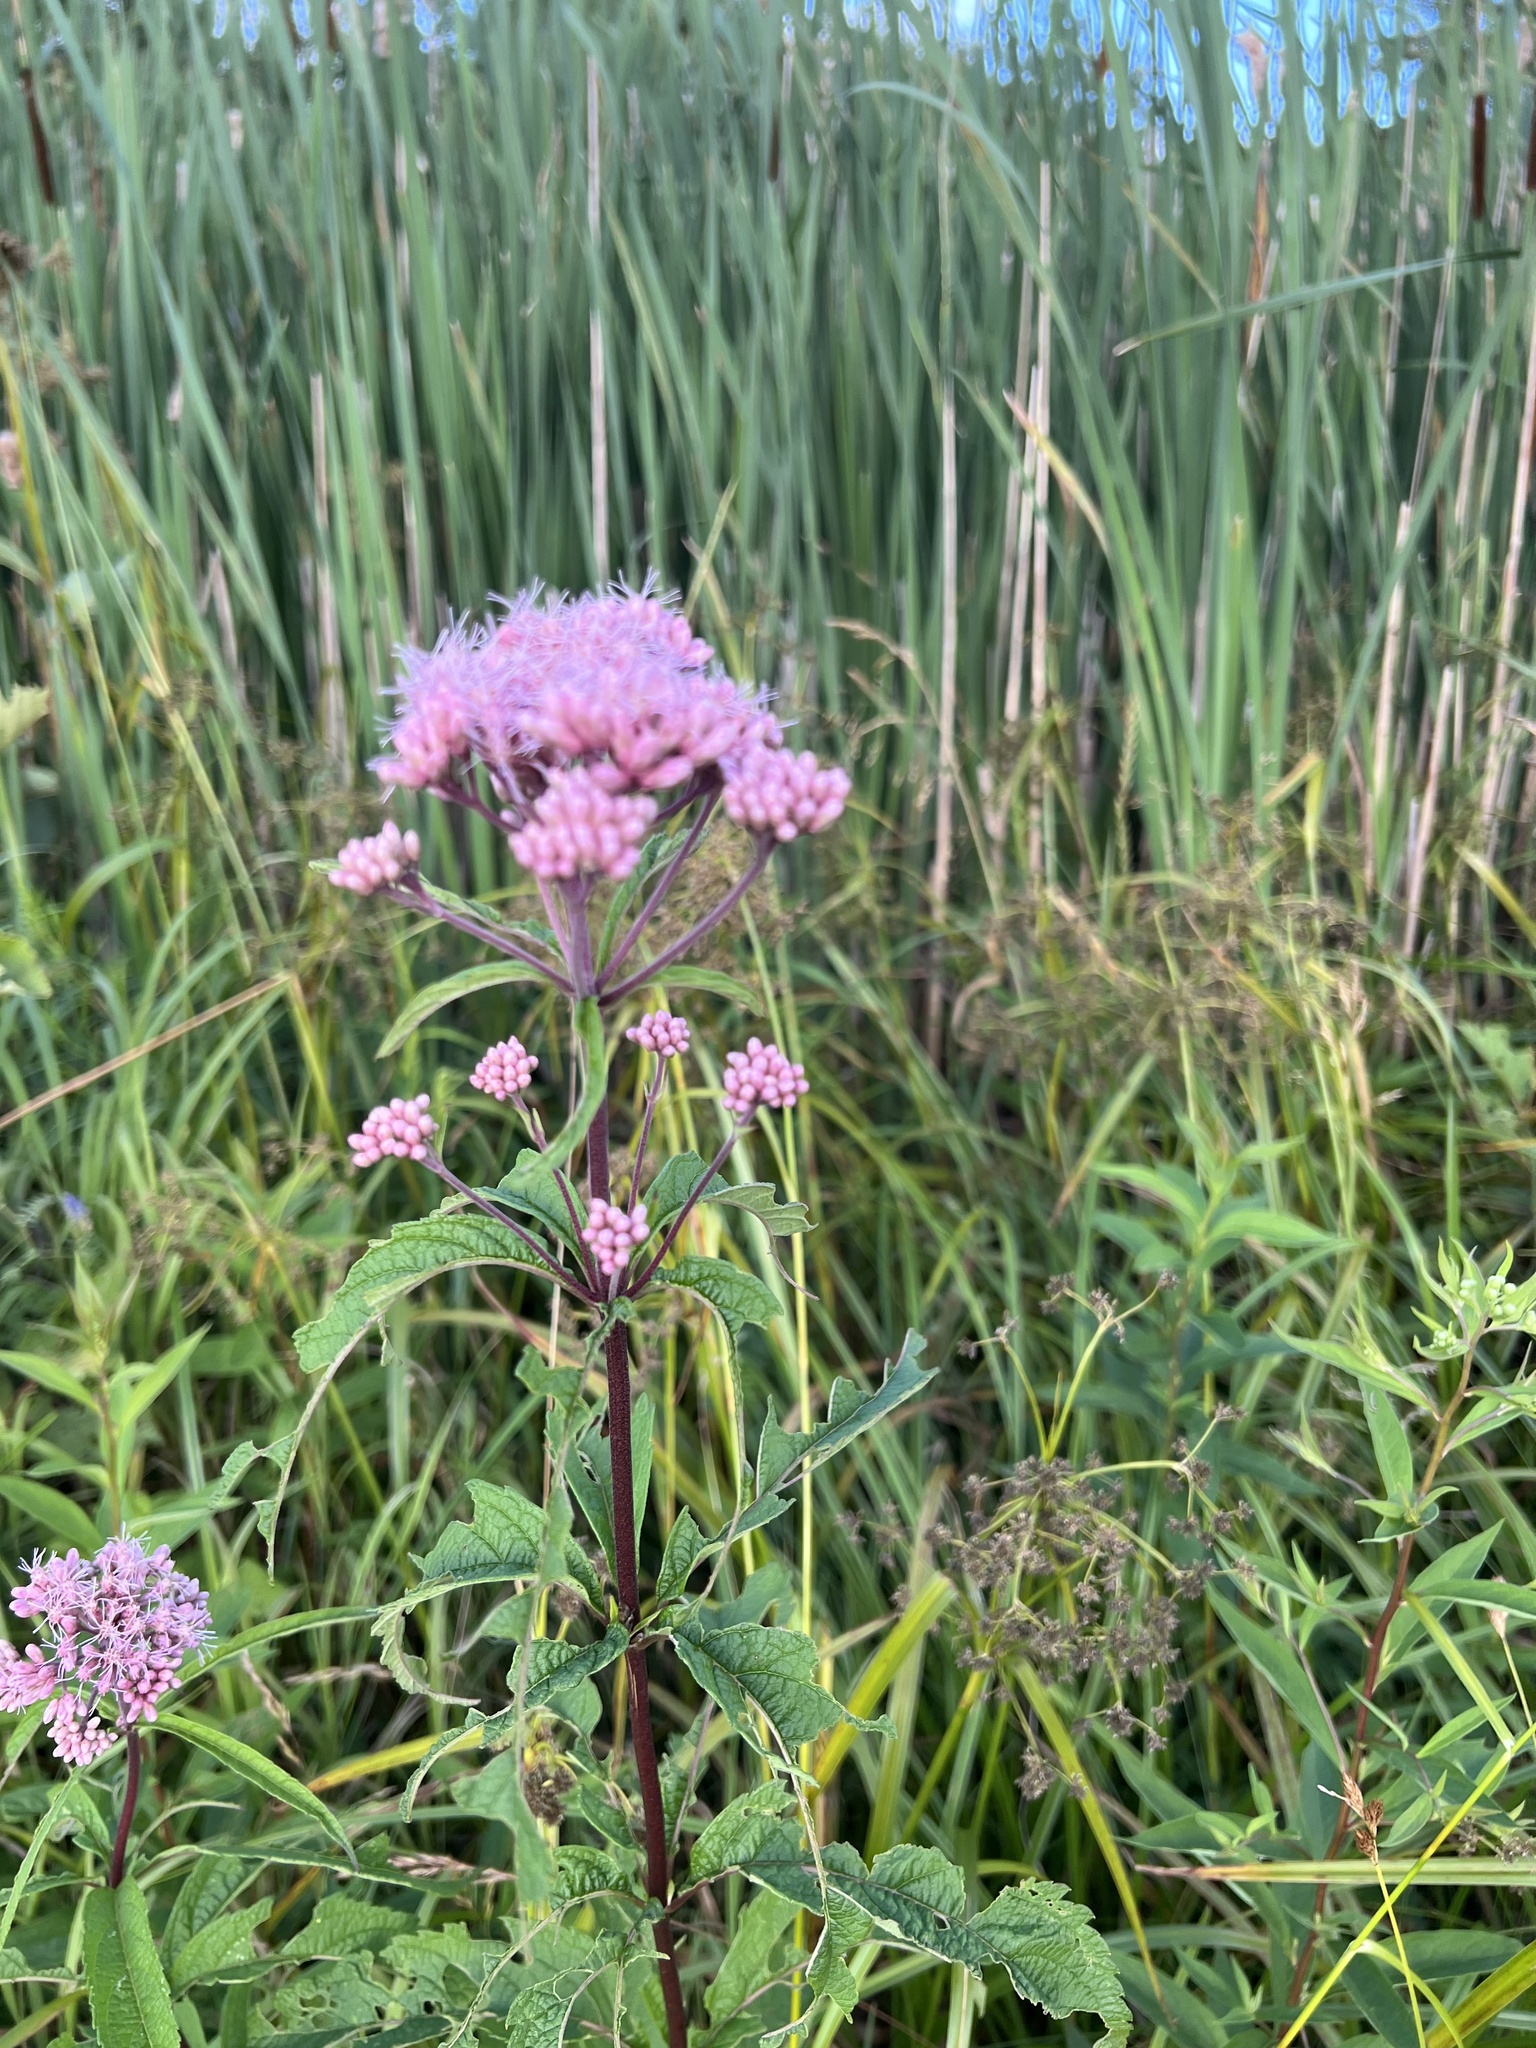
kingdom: Plantae
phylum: Tracheophyta
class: Magnoliopsida
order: Asterales
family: Asteraceae
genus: Eutrochium
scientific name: Eutrochium maculatum
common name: Spotted joe pye weed
